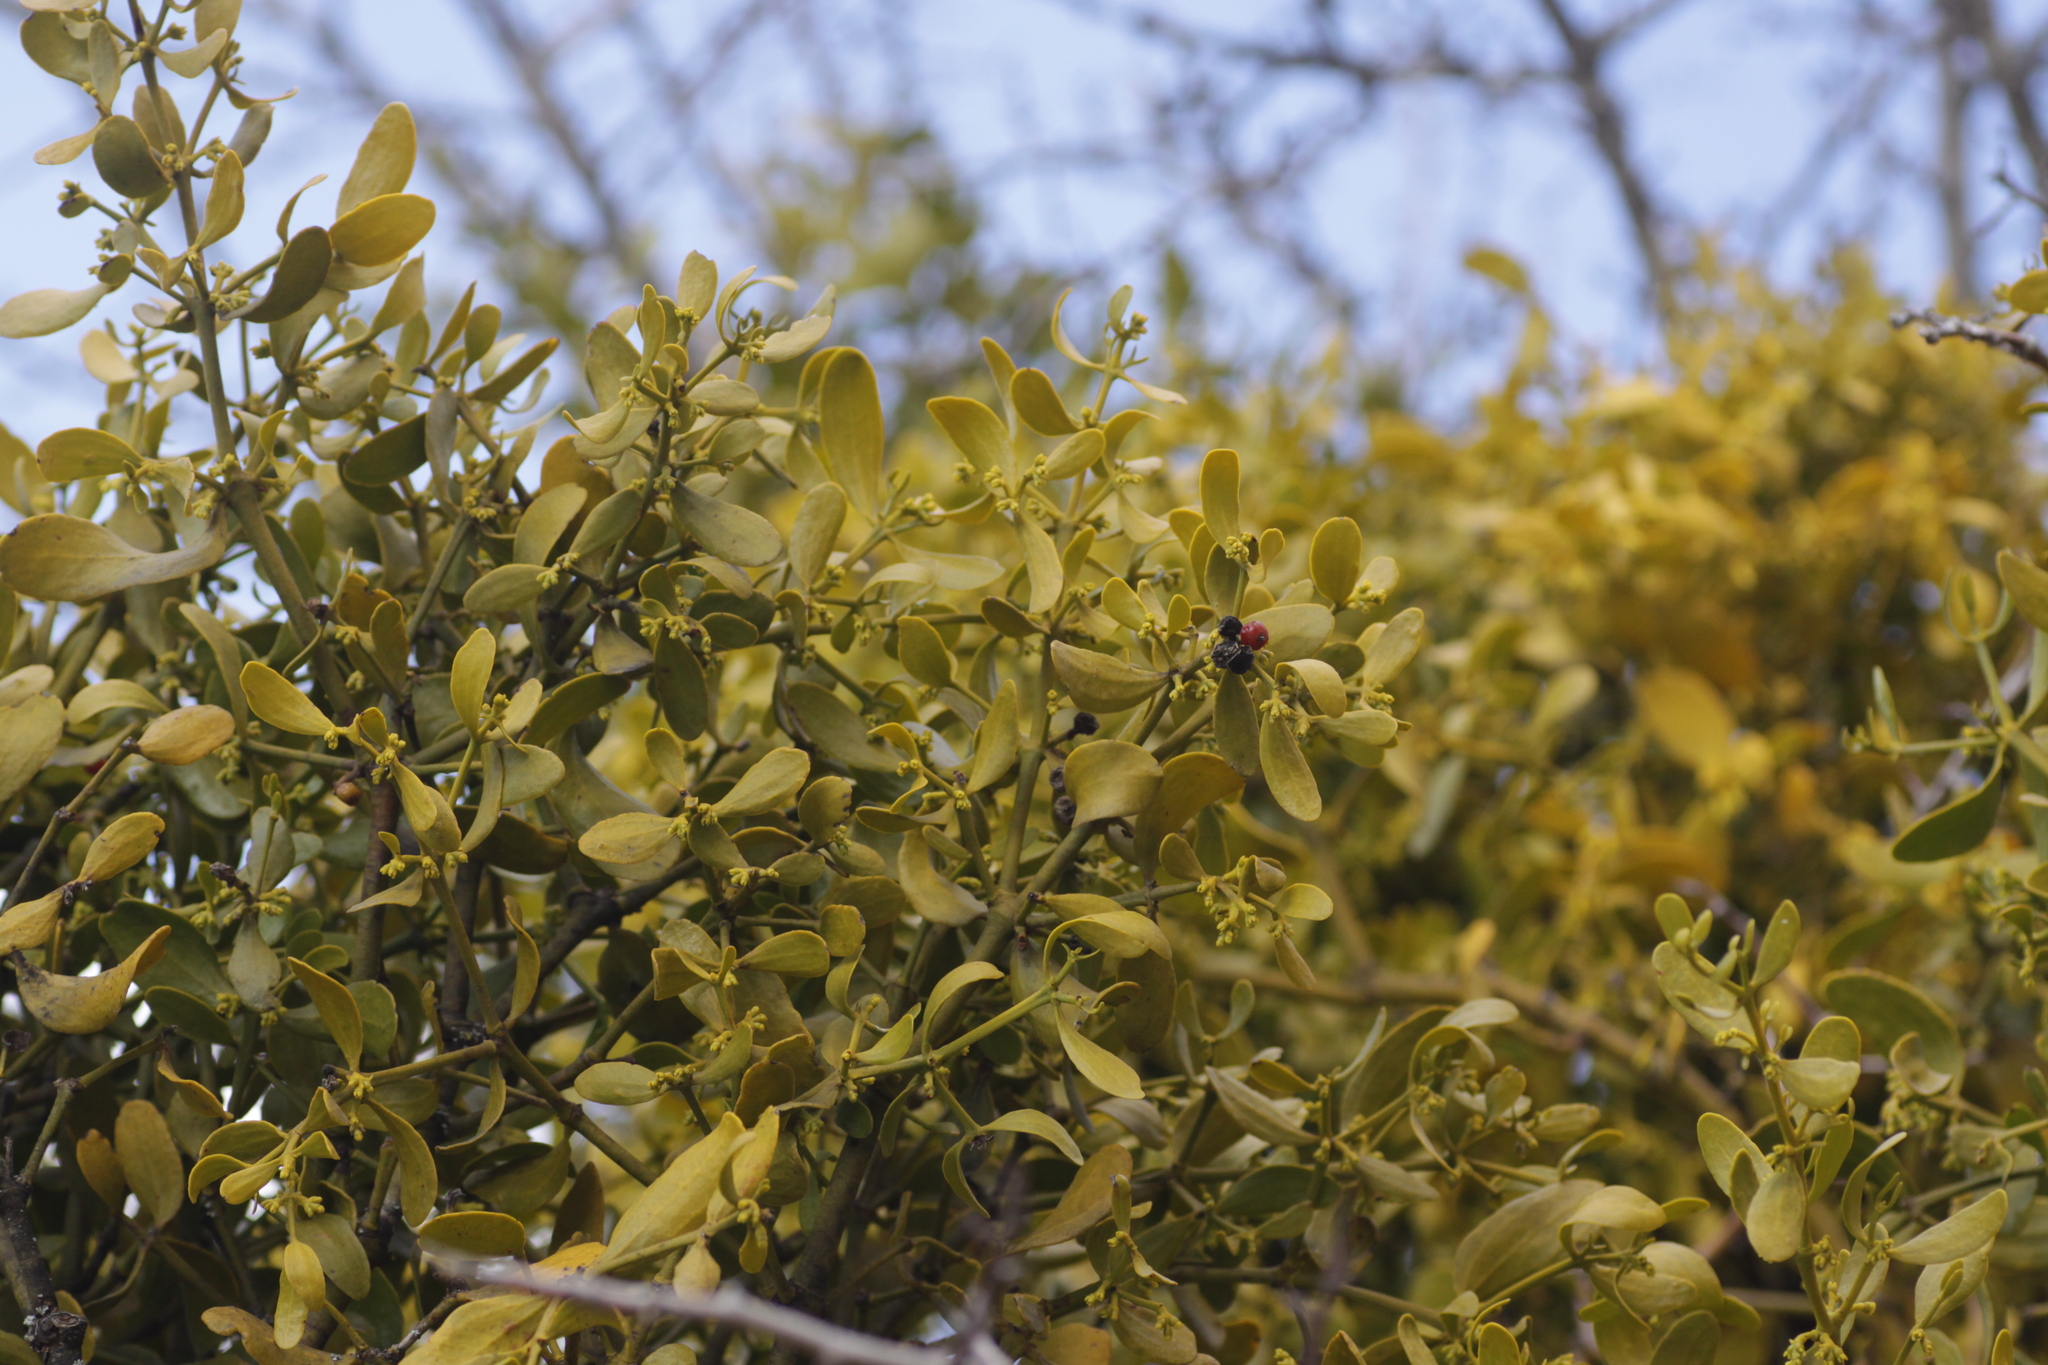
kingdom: Plantae
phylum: Tracheophyta
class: Magnoliopsida
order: Santalales
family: Viscaceae
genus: Viscum
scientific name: Viscum cruciatum
